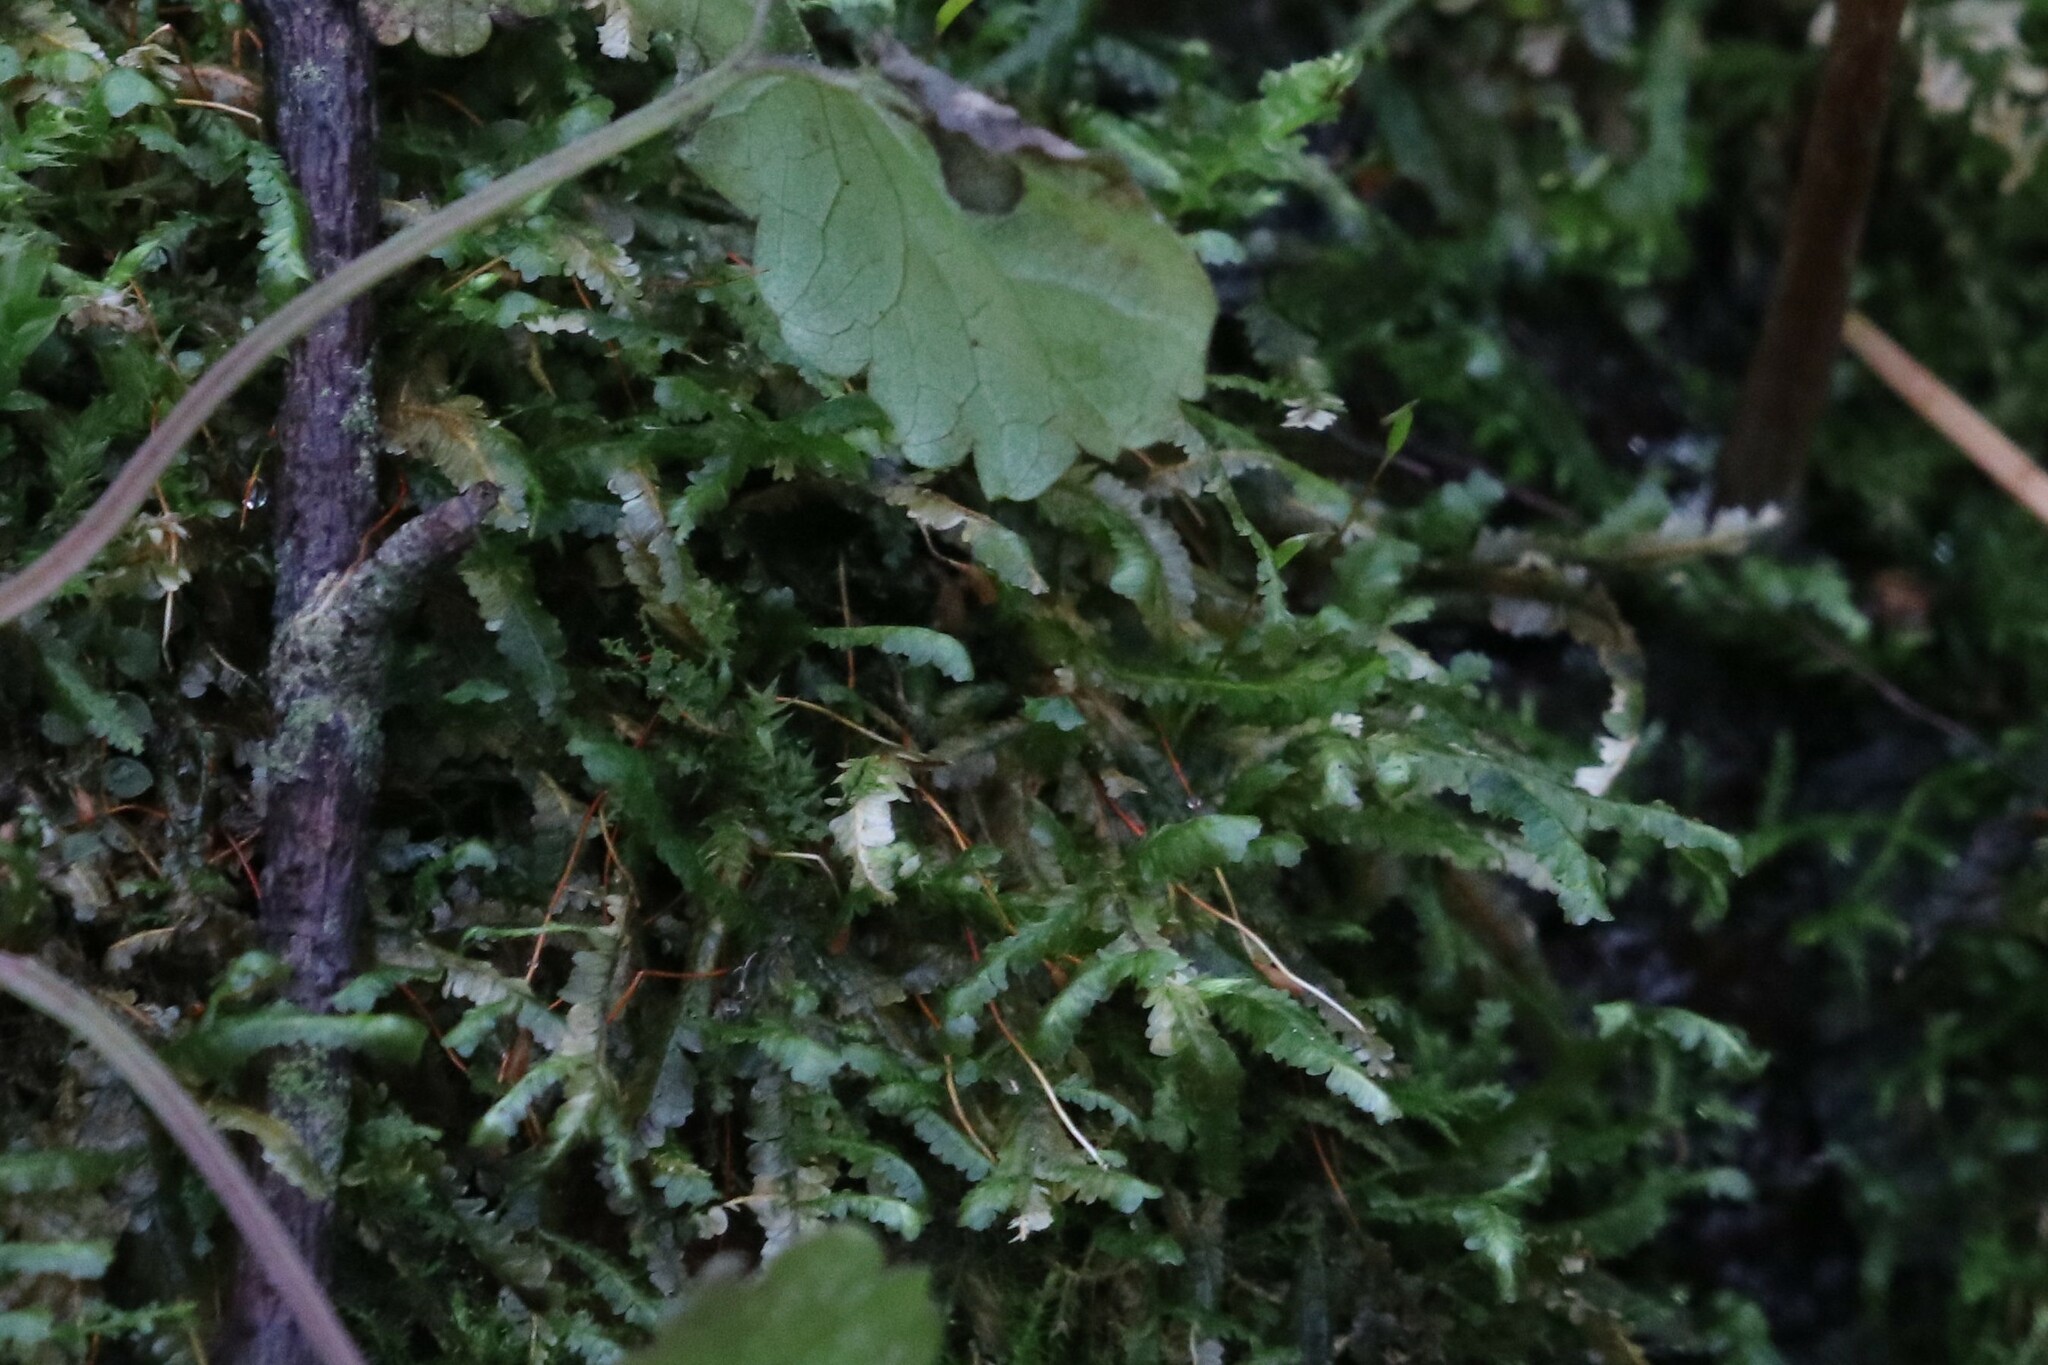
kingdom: Plantae
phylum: Bryophyta
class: Bryopsida
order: Hypnales
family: Neckeraceae
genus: Homalia
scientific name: Homalia trichomanoides
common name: Lime homalia moss
